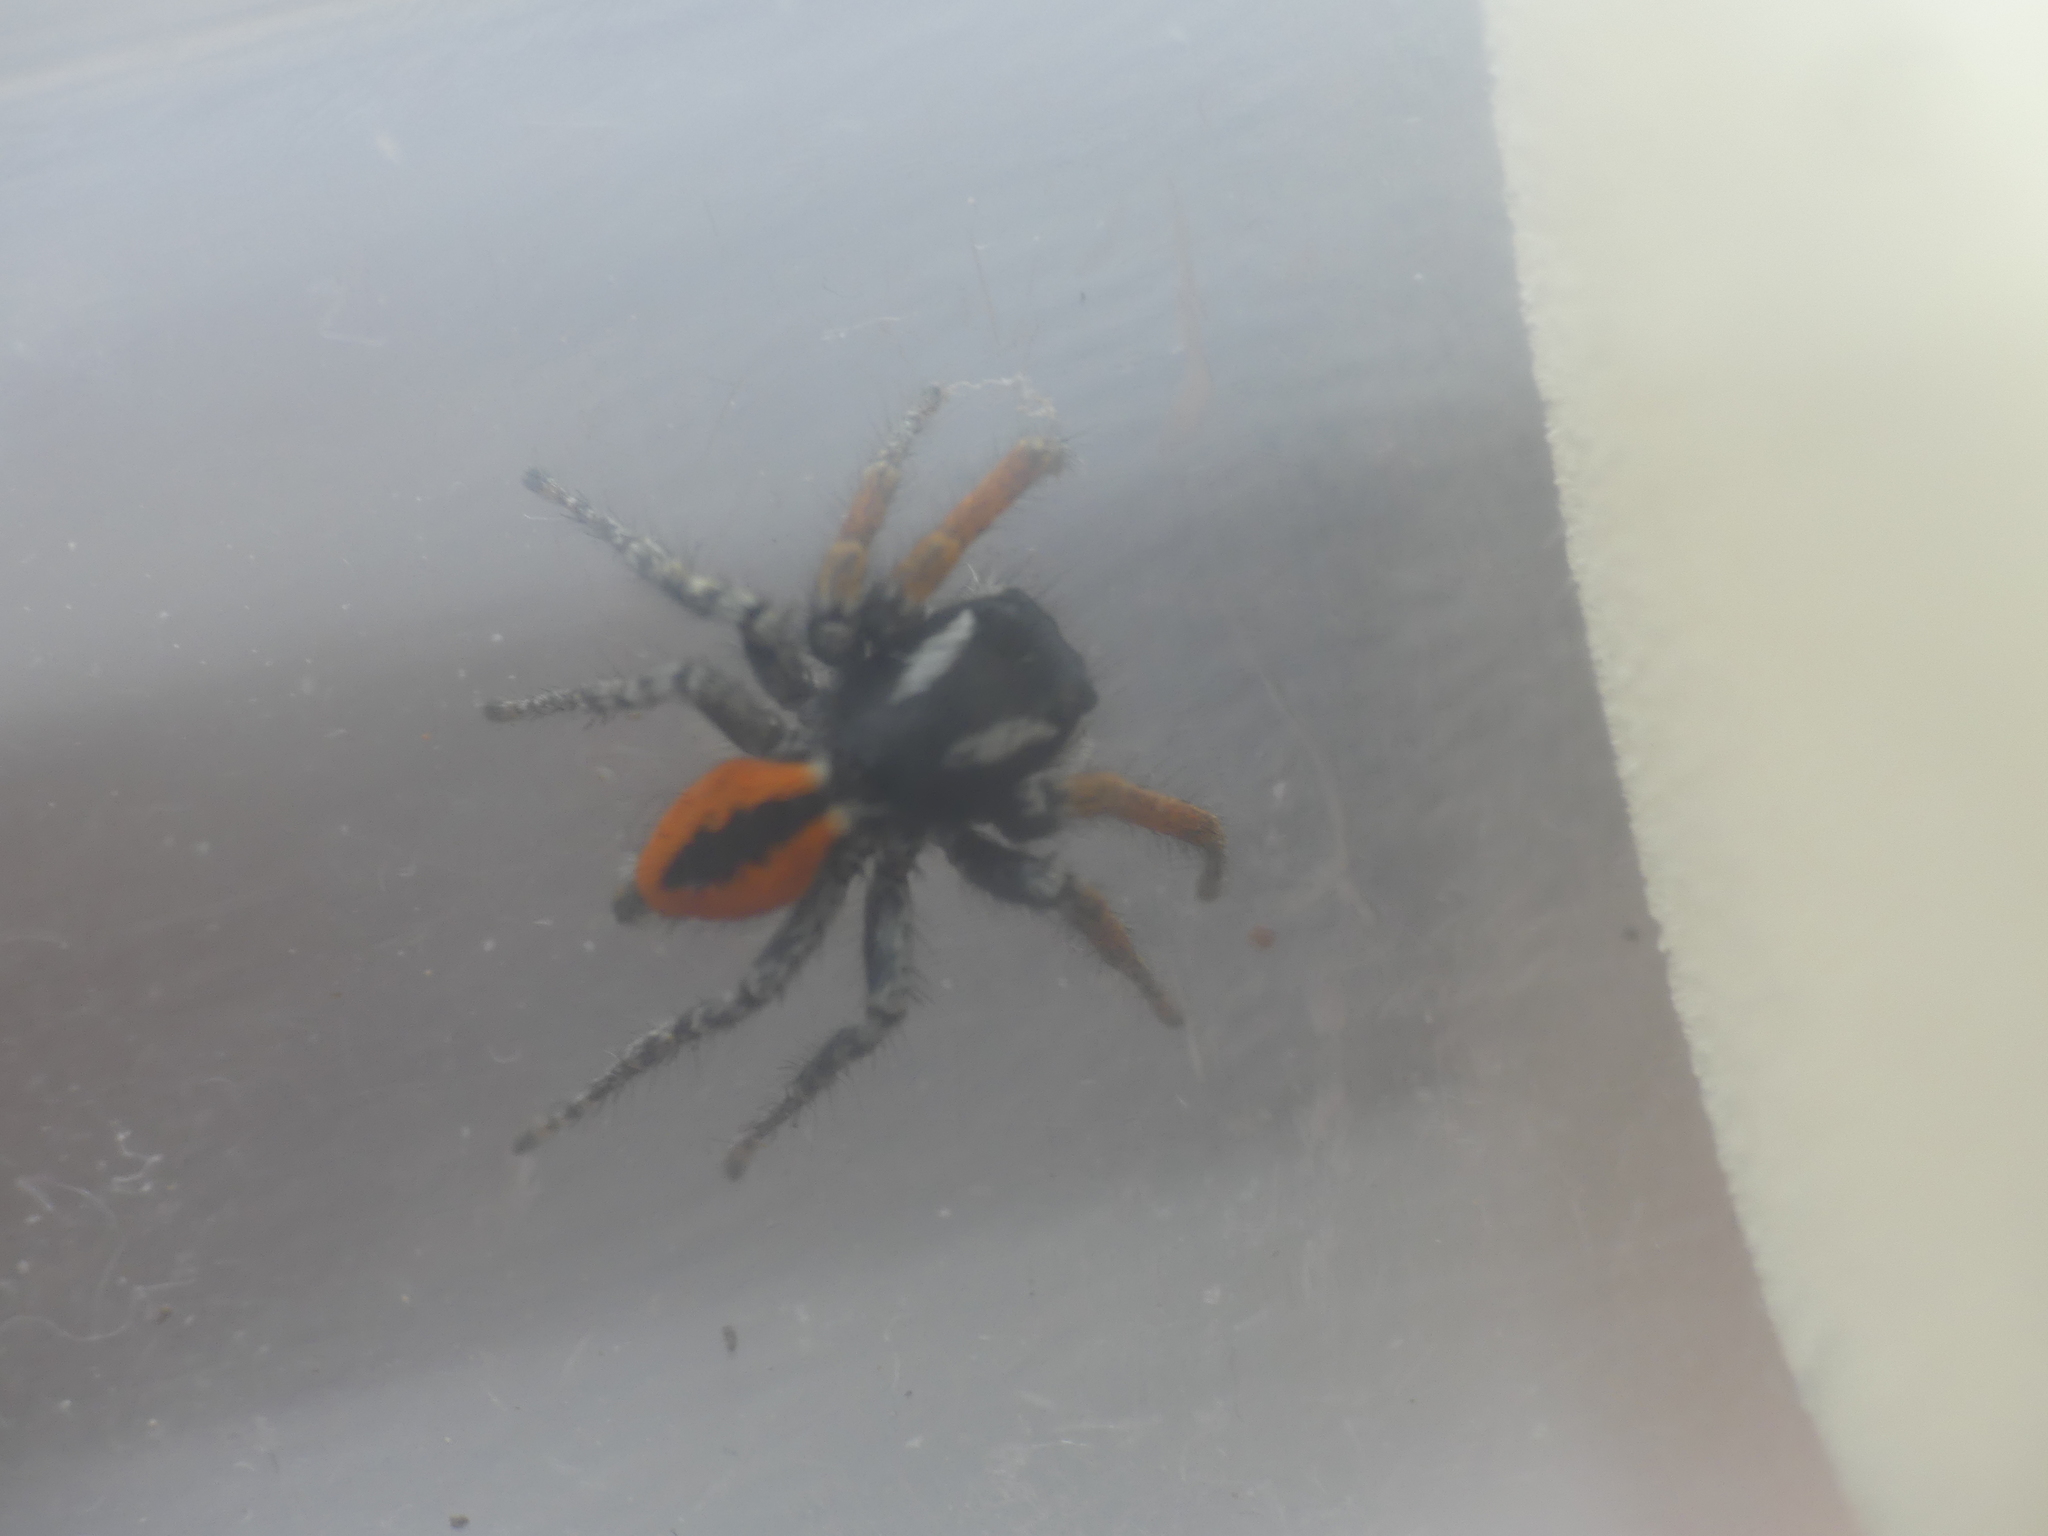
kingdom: Animalia
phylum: Arthropoda
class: Arachnida
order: Araneae
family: Salticidae
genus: Philaeus
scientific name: Philaeus chrysops
